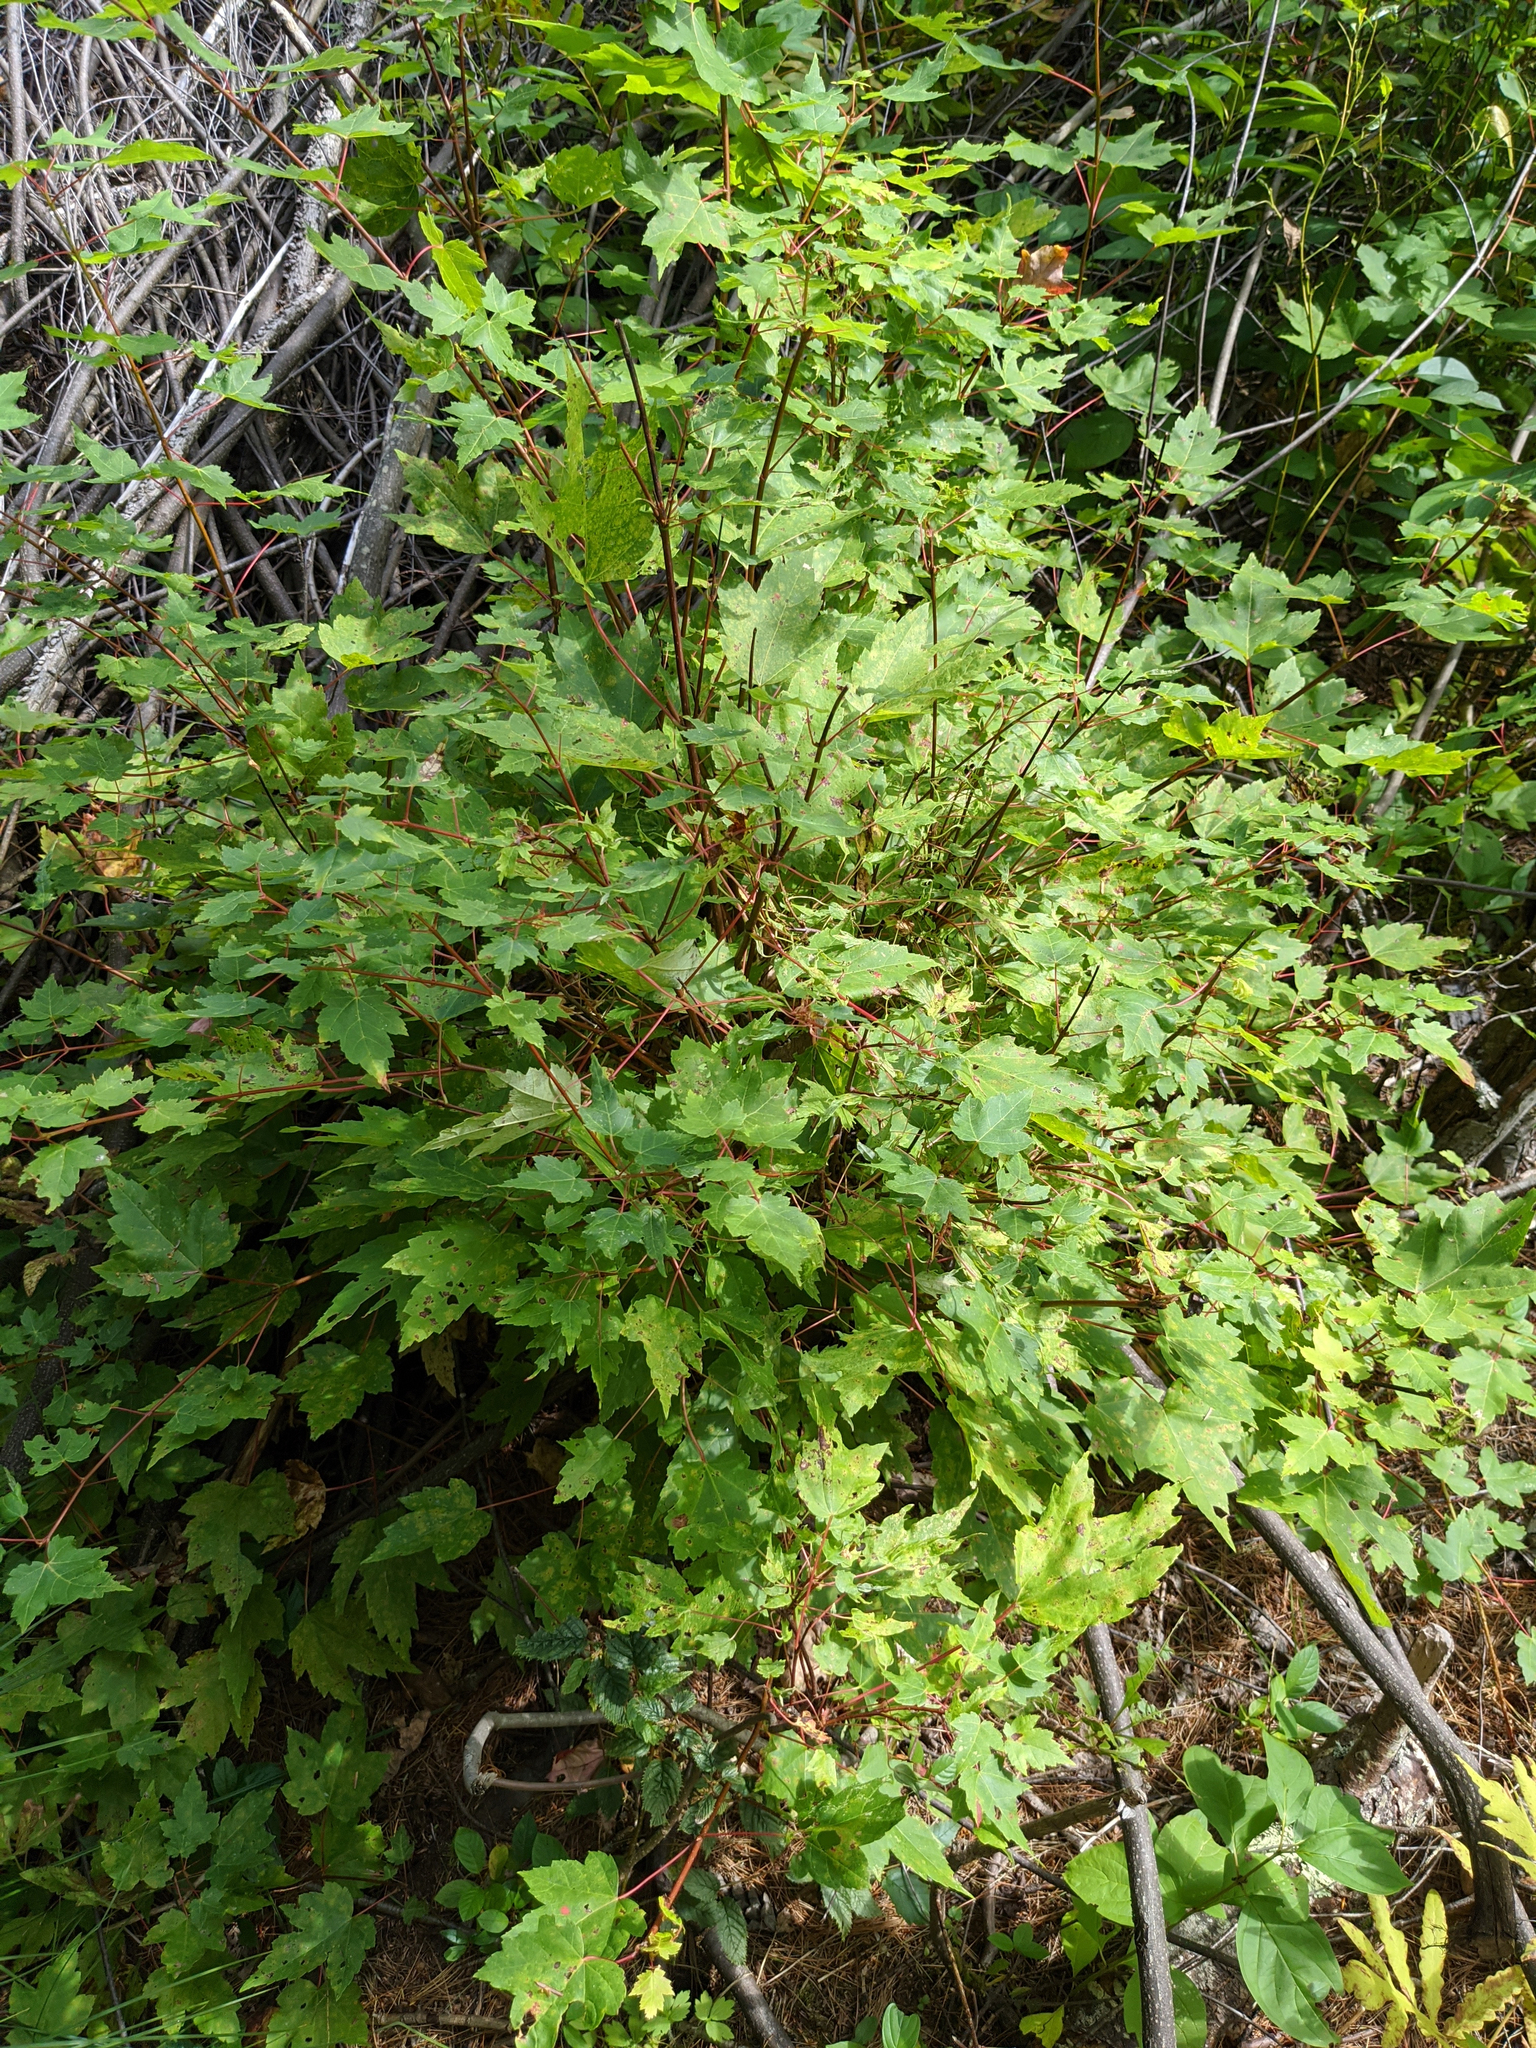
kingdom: Plantae
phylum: Tracheophyta
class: Magnoliopsida
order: Sapindales
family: Sapindaceae
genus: Acer
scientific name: Acer rubrum
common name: Red maple
